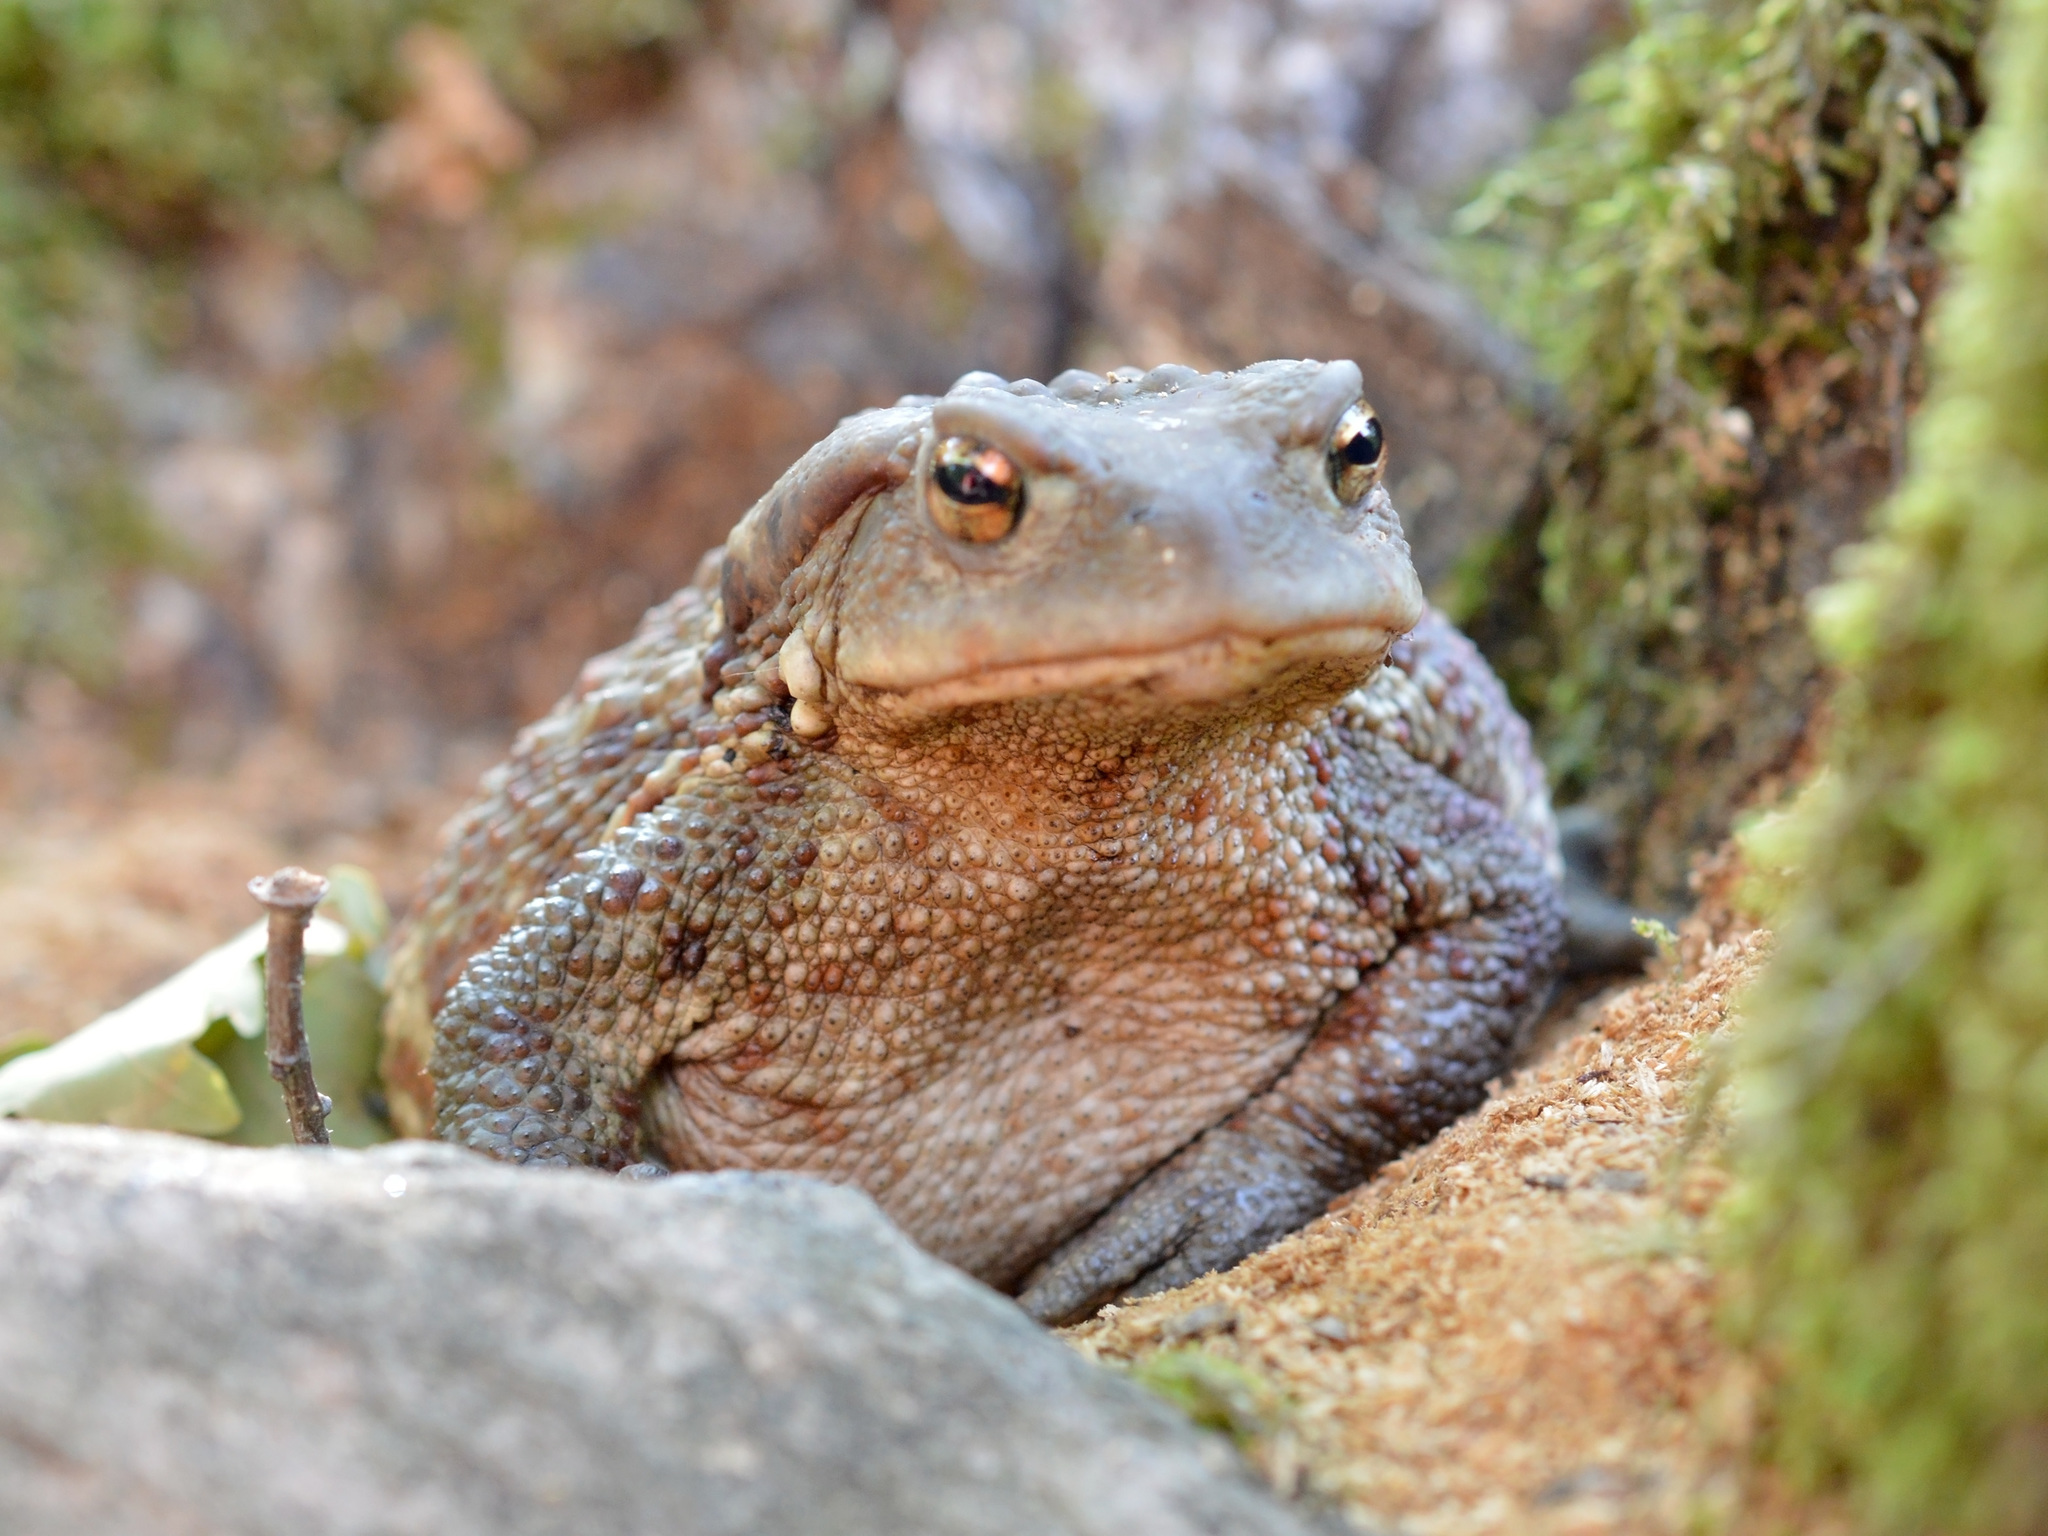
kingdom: Animalia
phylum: Chordata
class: Amphibia
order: Anura
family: Bufonidae
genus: Bufo
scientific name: Bufo bufo
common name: Common toad
